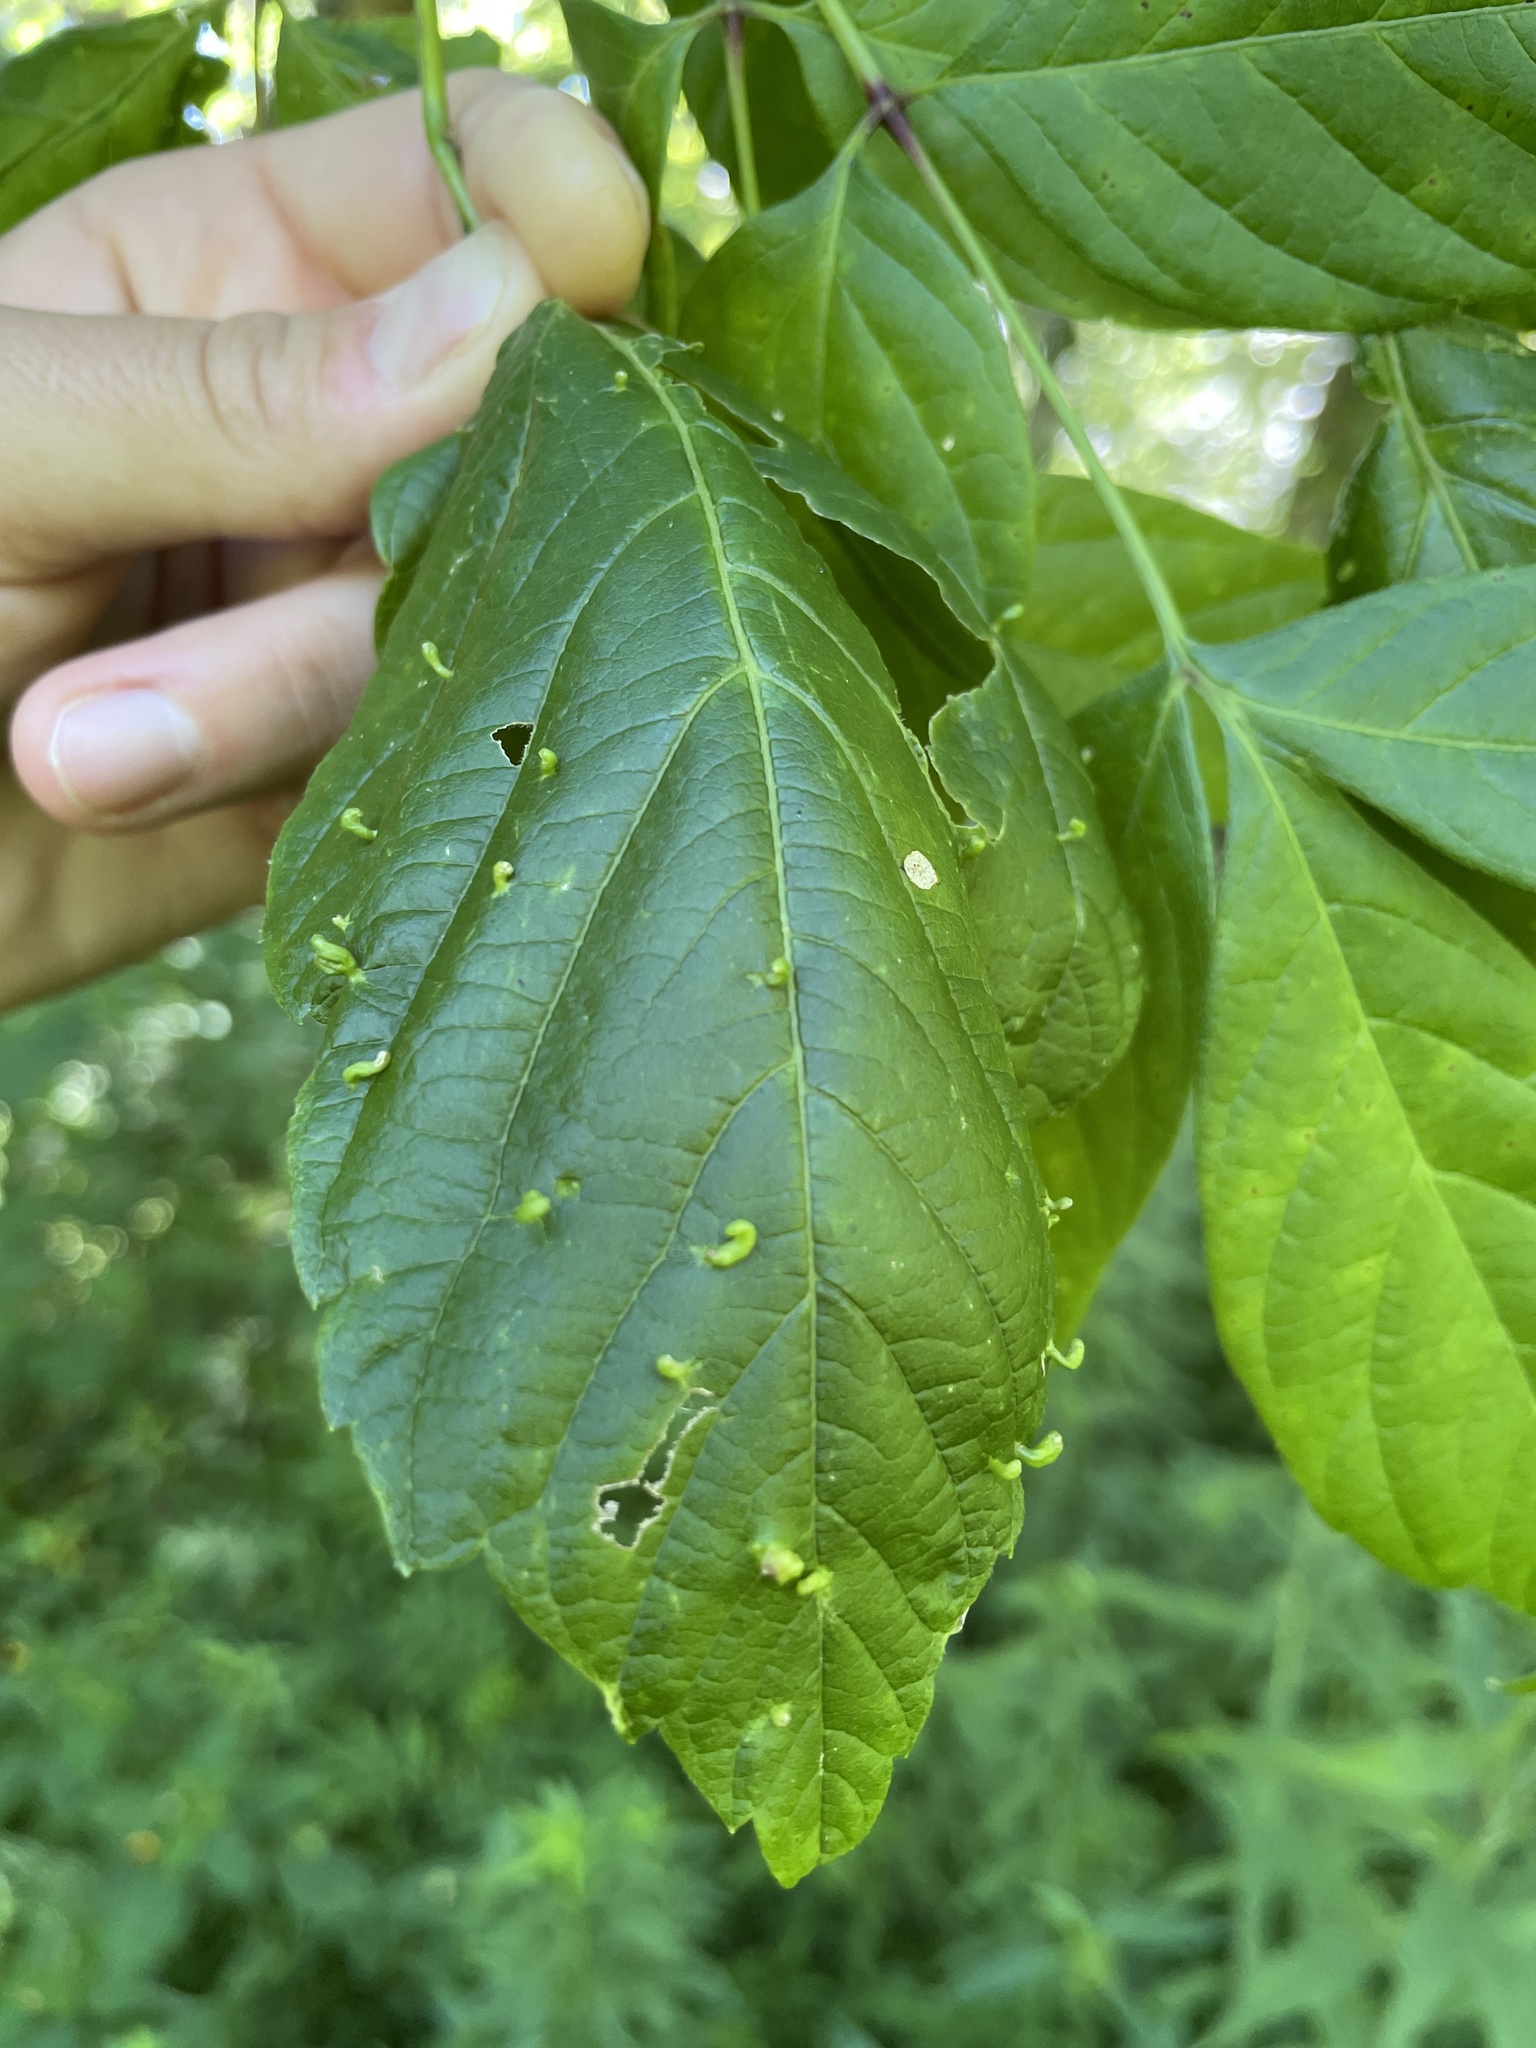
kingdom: Animalia
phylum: Arthropoda
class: Arachnida
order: Trombidiformes
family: Eriophyidae
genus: Aceria
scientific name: Aceria
